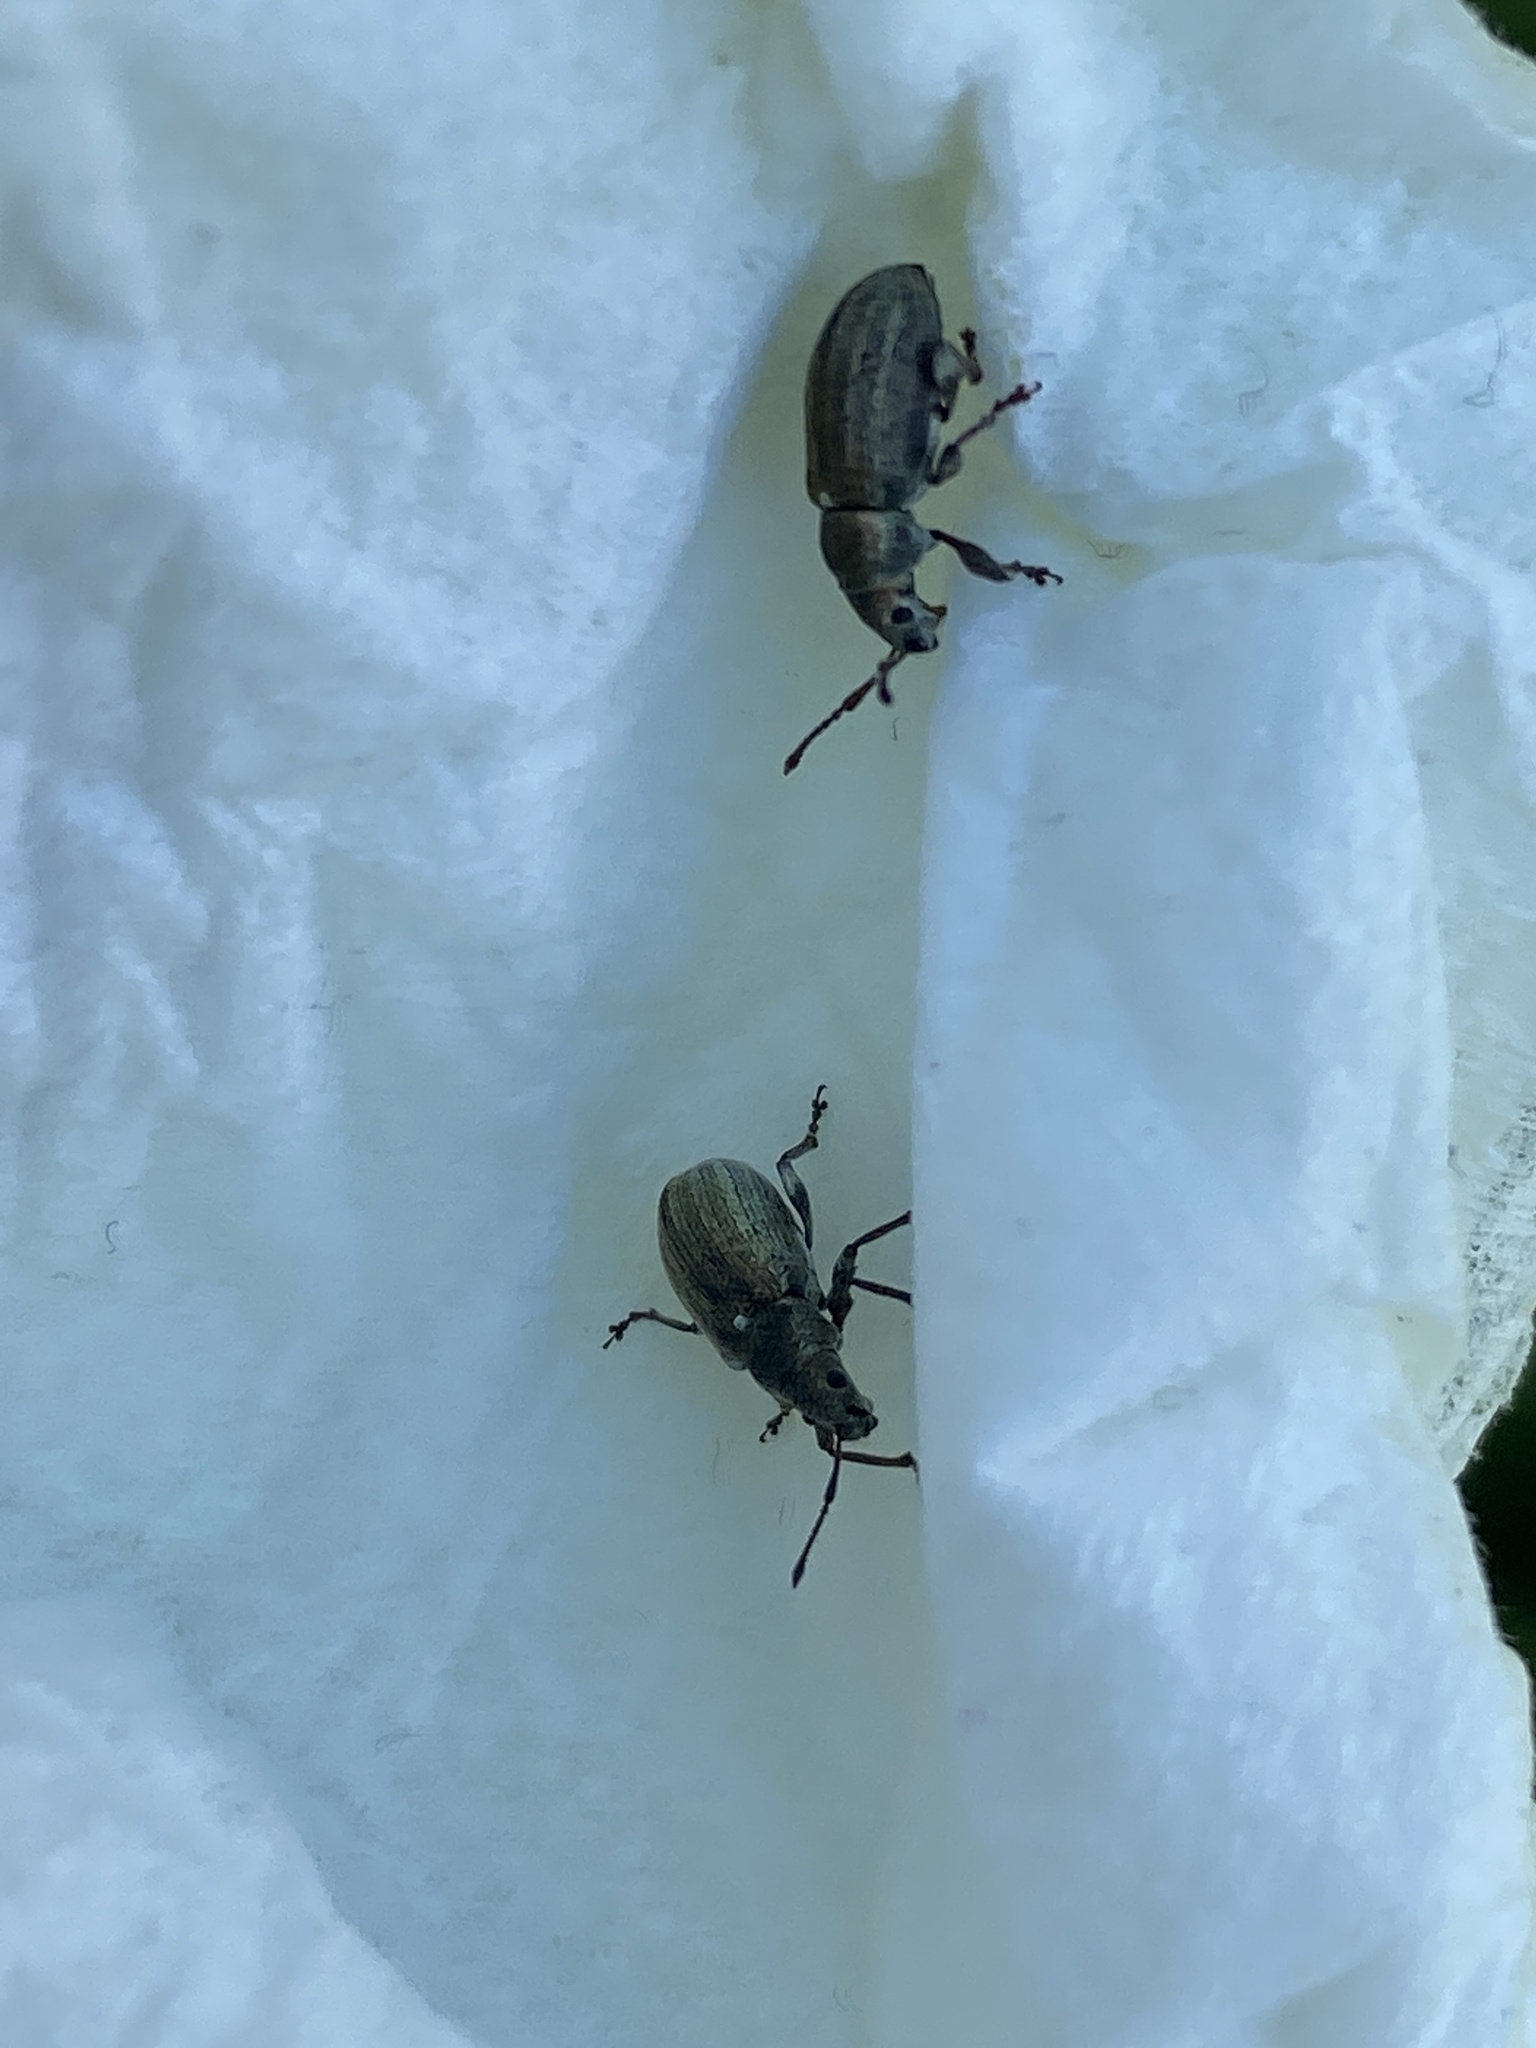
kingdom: Animalia
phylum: Arthropoda
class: Insecta
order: Coleoptera
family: Curculionidae
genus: Phyllobius
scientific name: Phyllobius pyri
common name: Common leaf weevil
